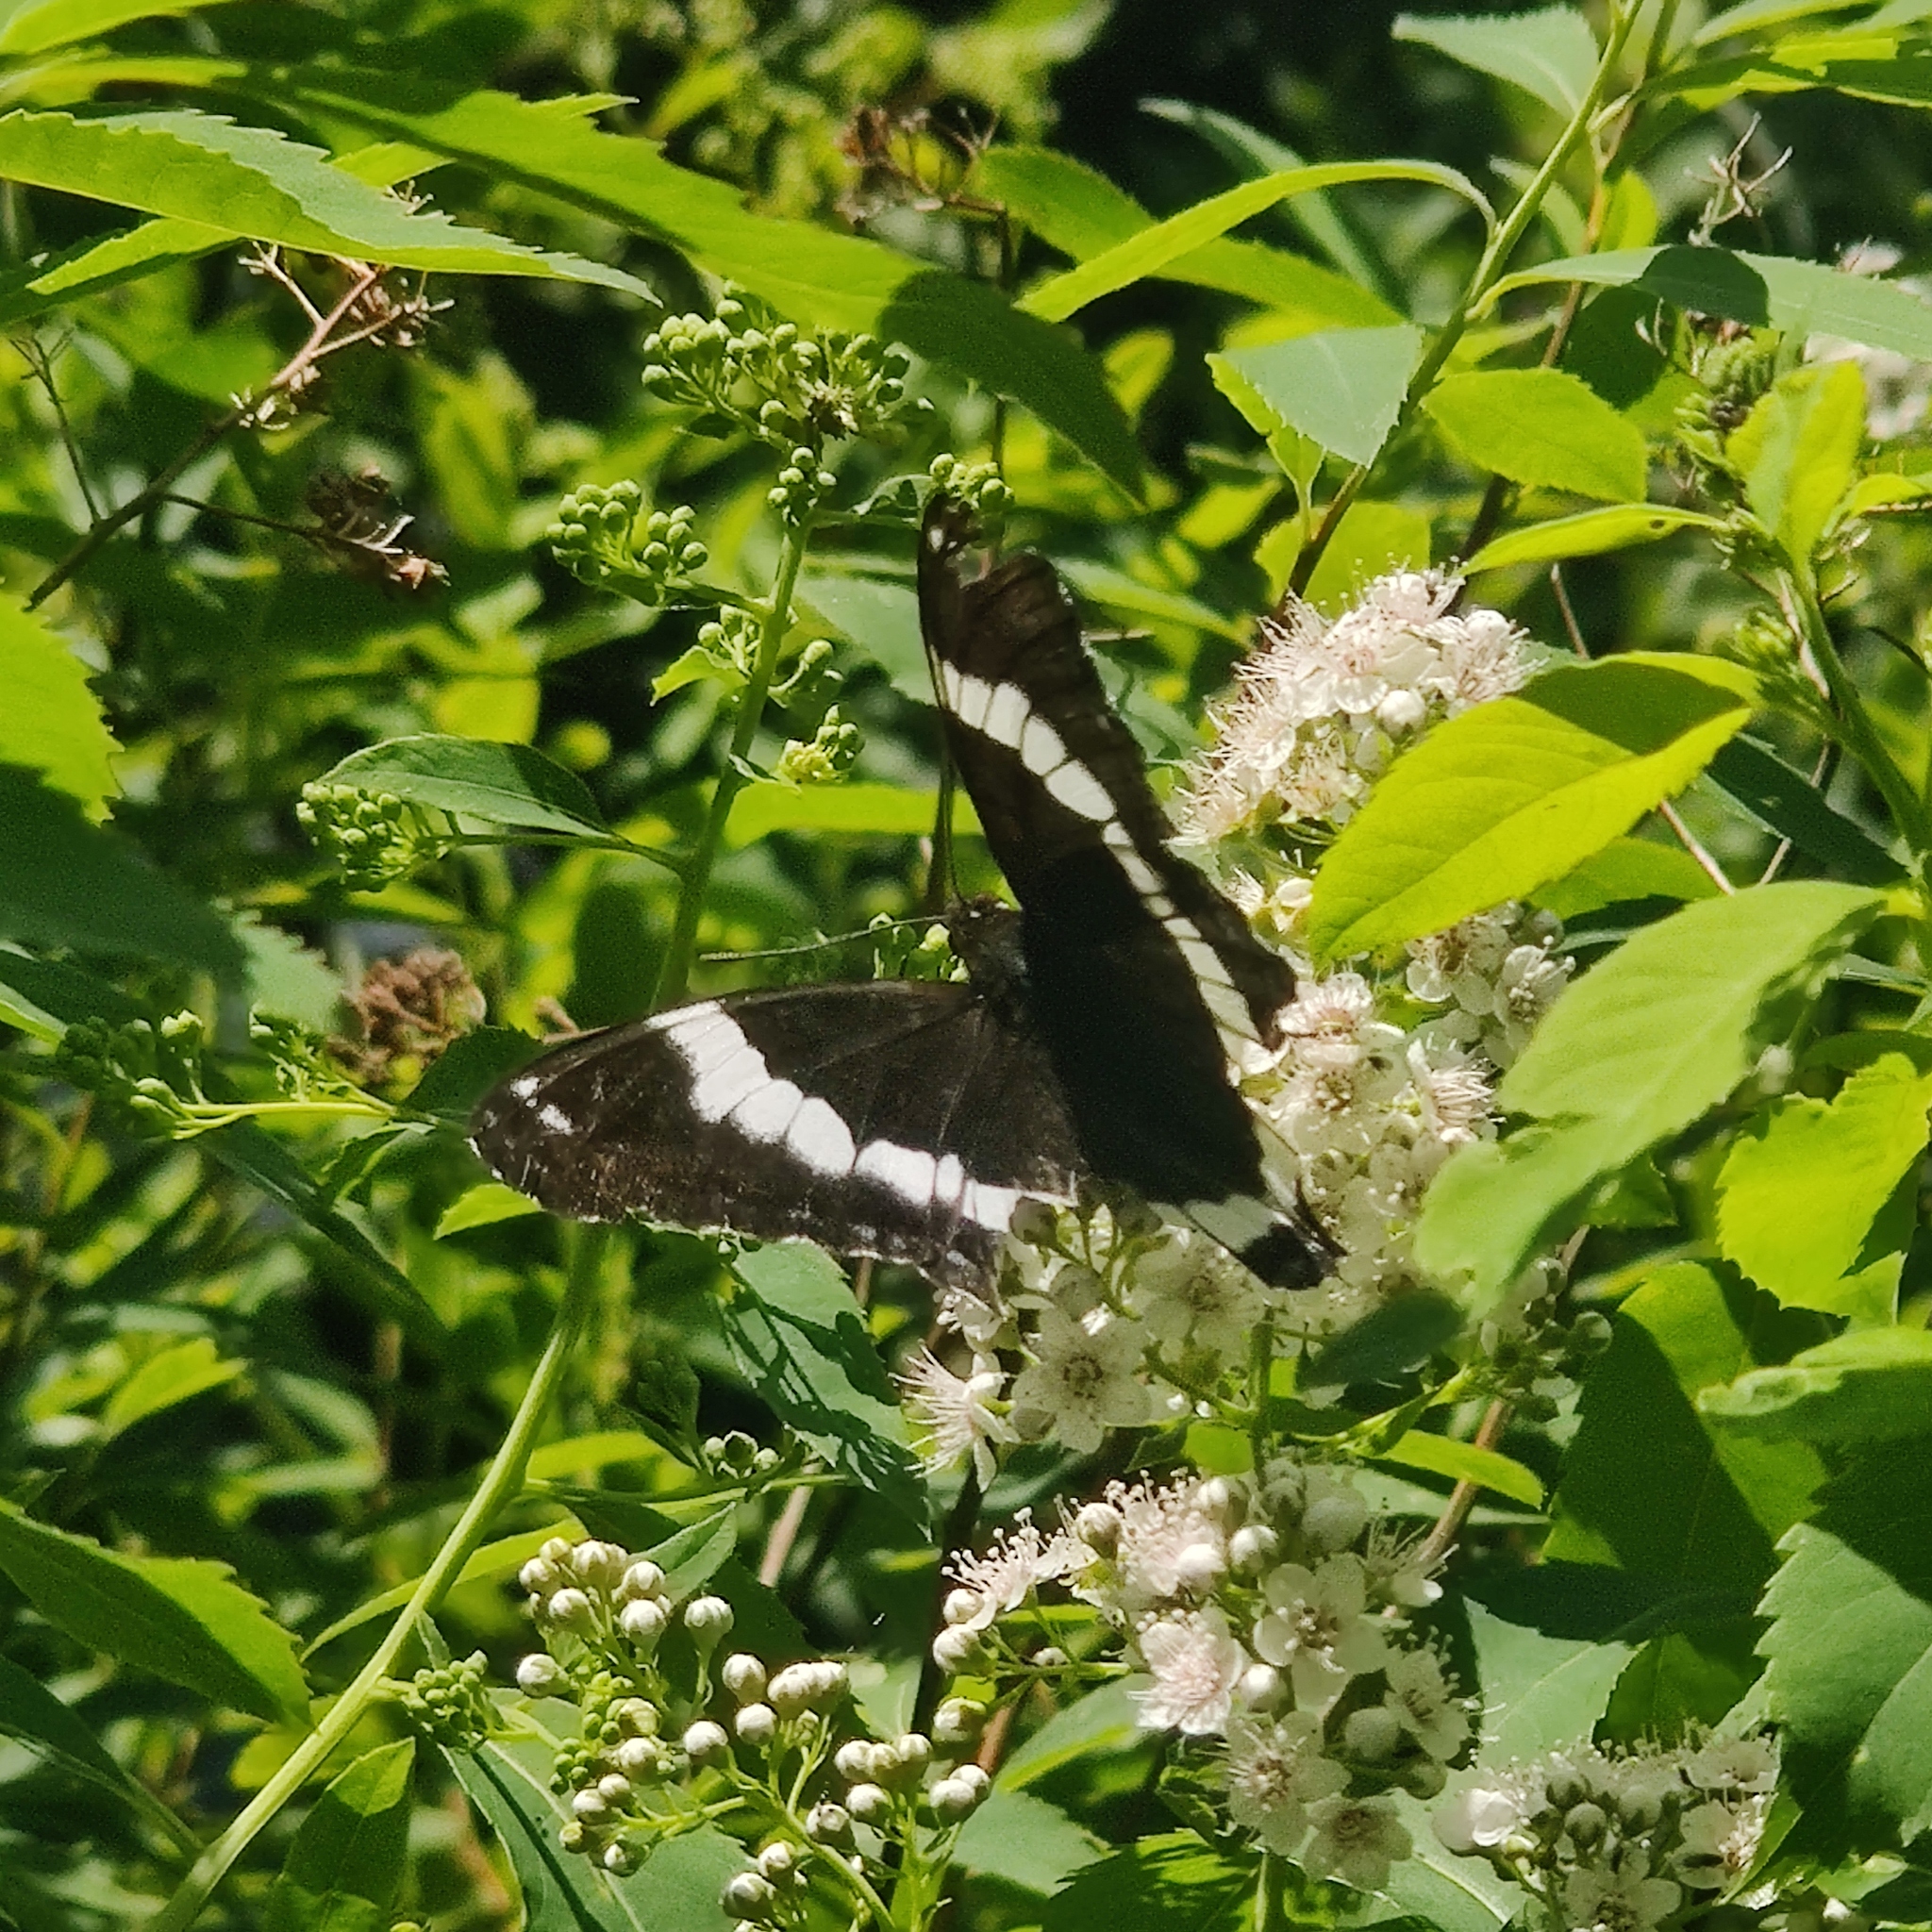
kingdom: Animalia
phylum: Arthropoda
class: Insecta
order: Lepidoptera
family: Nymphalidae
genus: Limenitis
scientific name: Limenitis arthemis
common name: Red-spotted admiral
